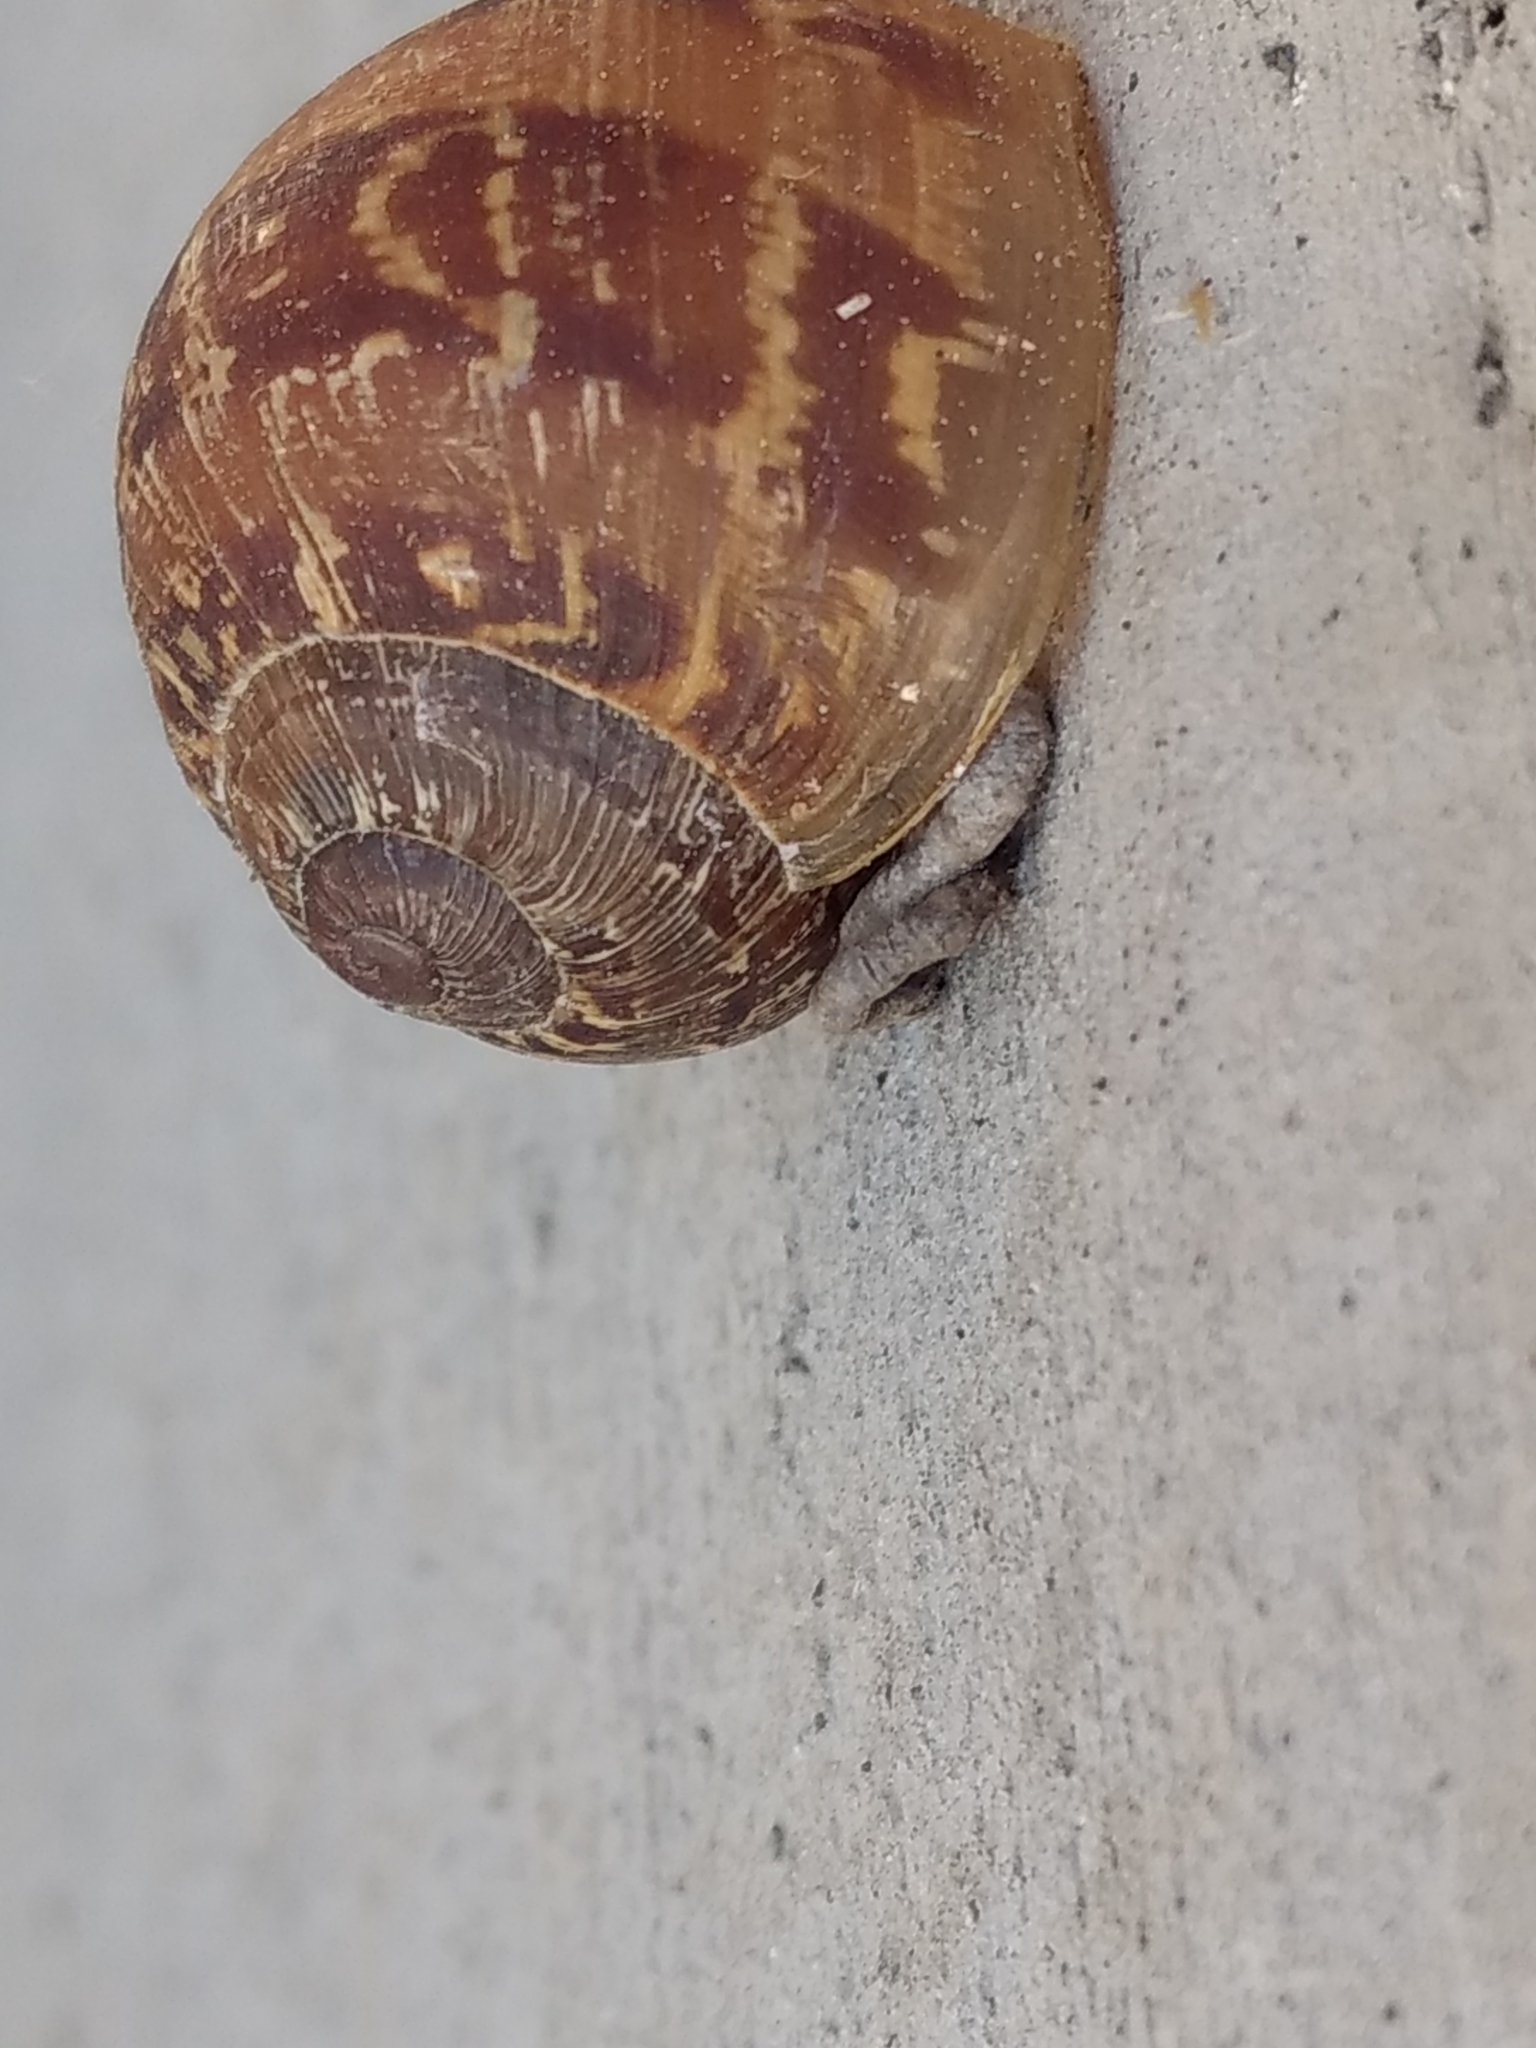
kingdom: Animalia
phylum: Mollusca
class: Gastropoda
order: Stylommatophora
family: Helicidae
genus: Cornu
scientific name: Cornu aspersum
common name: Brown garden snail
